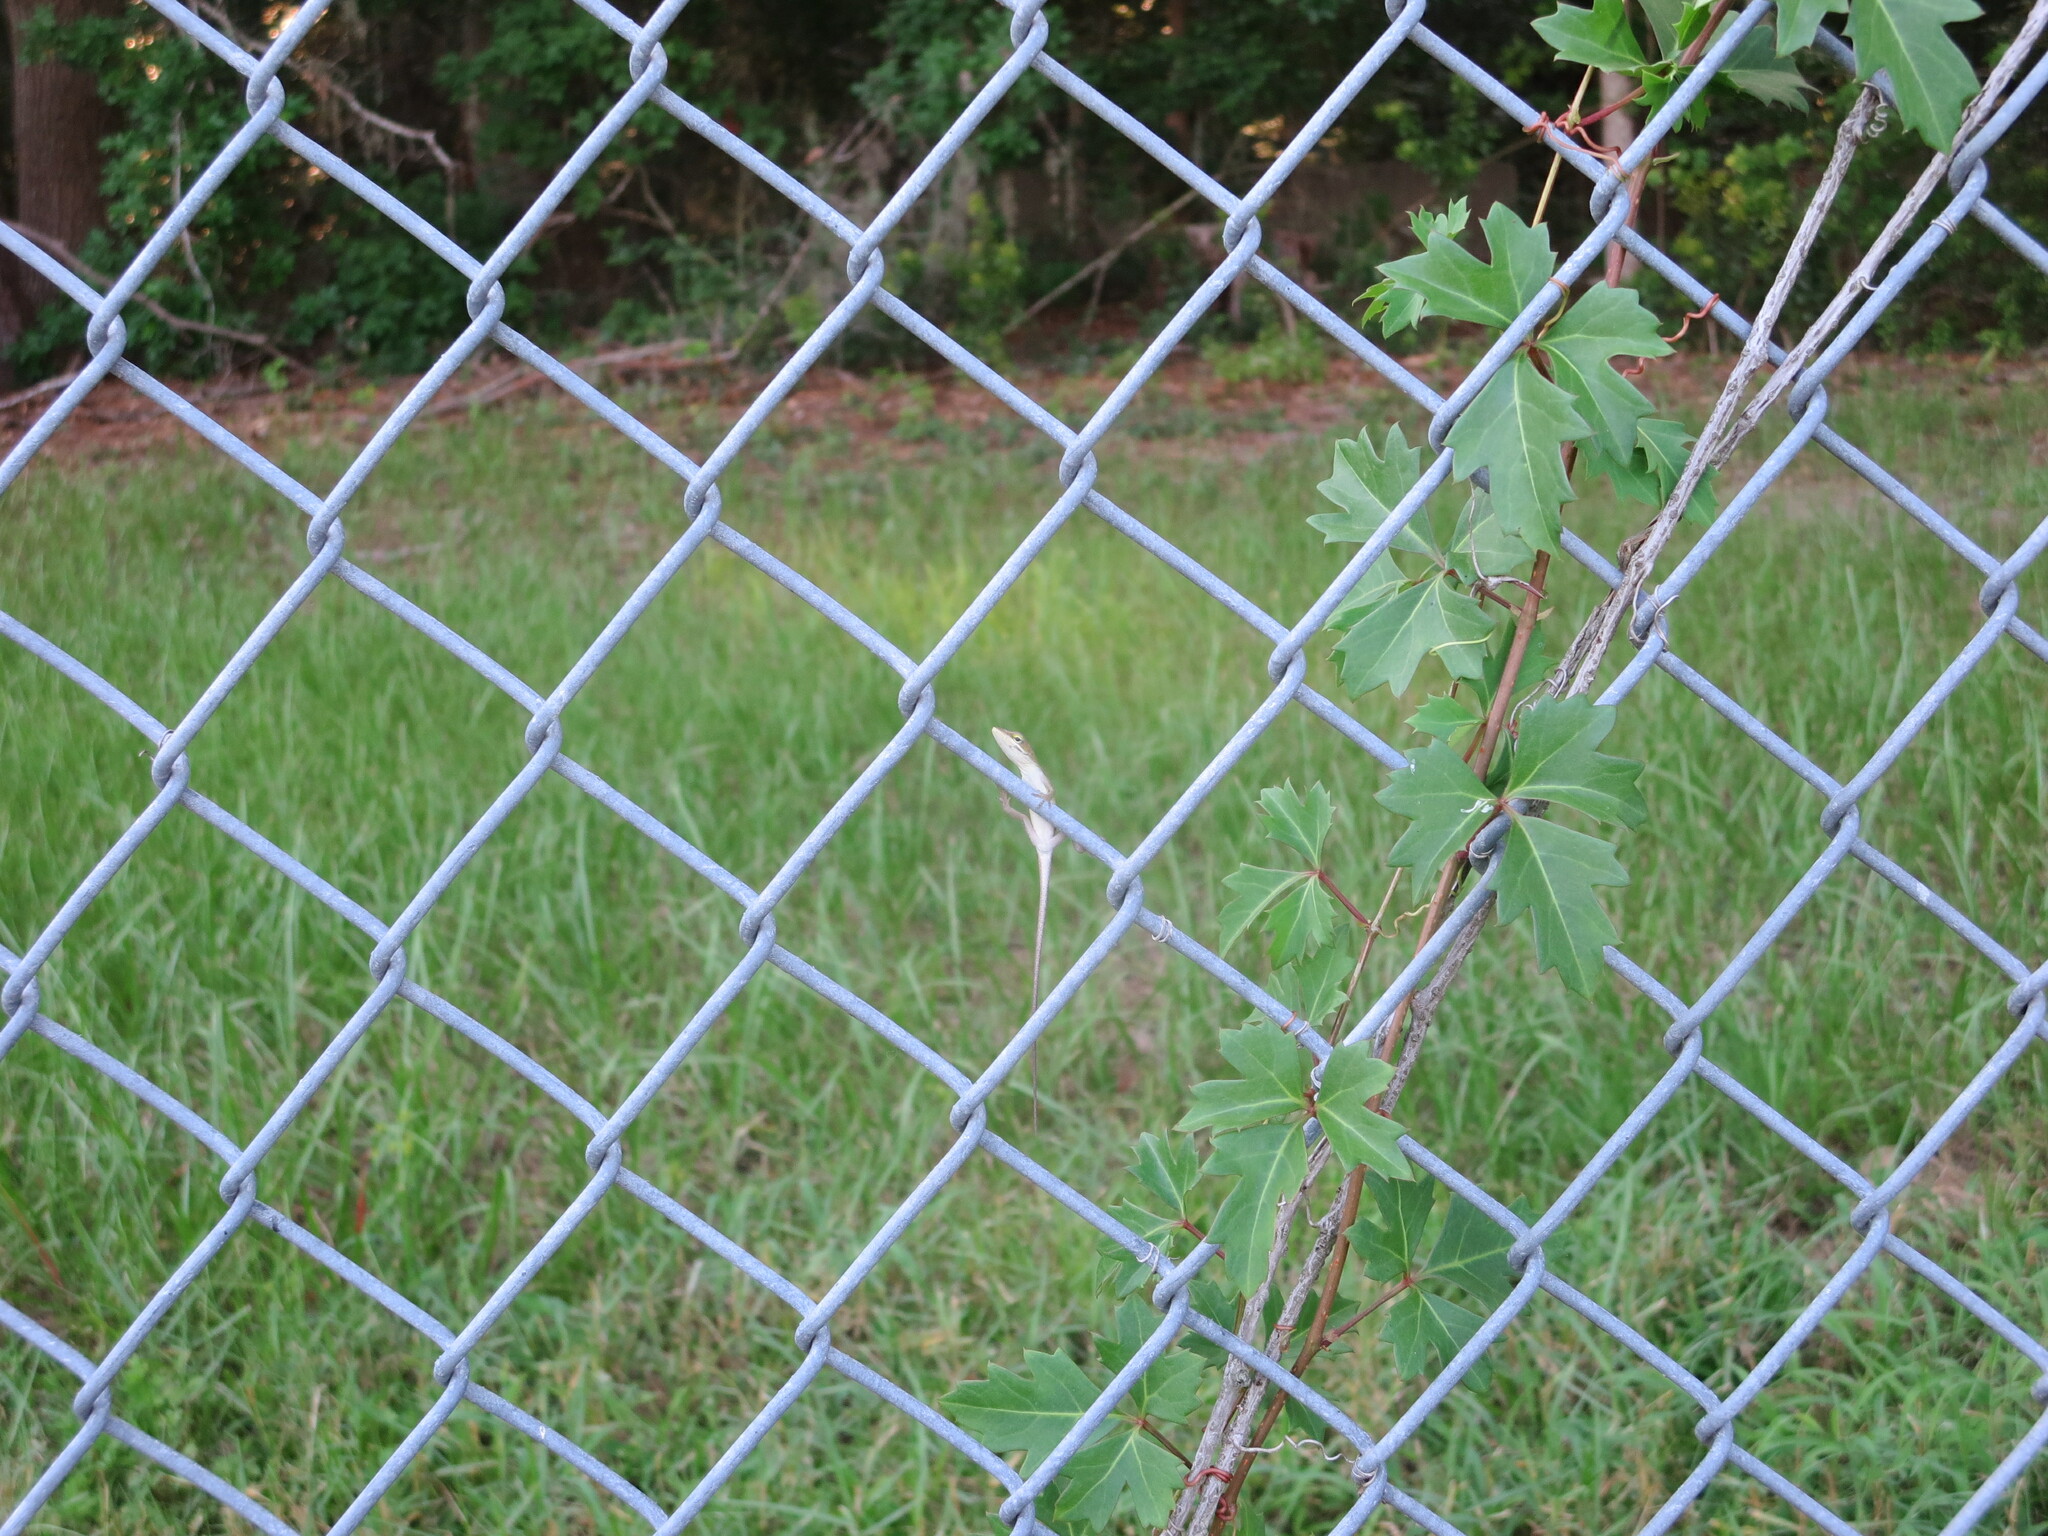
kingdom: Animalia
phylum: Chordata
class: Squamata
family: Dactyloidae
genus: Anolis
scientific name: Anolis carolinensis
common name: Green anole
